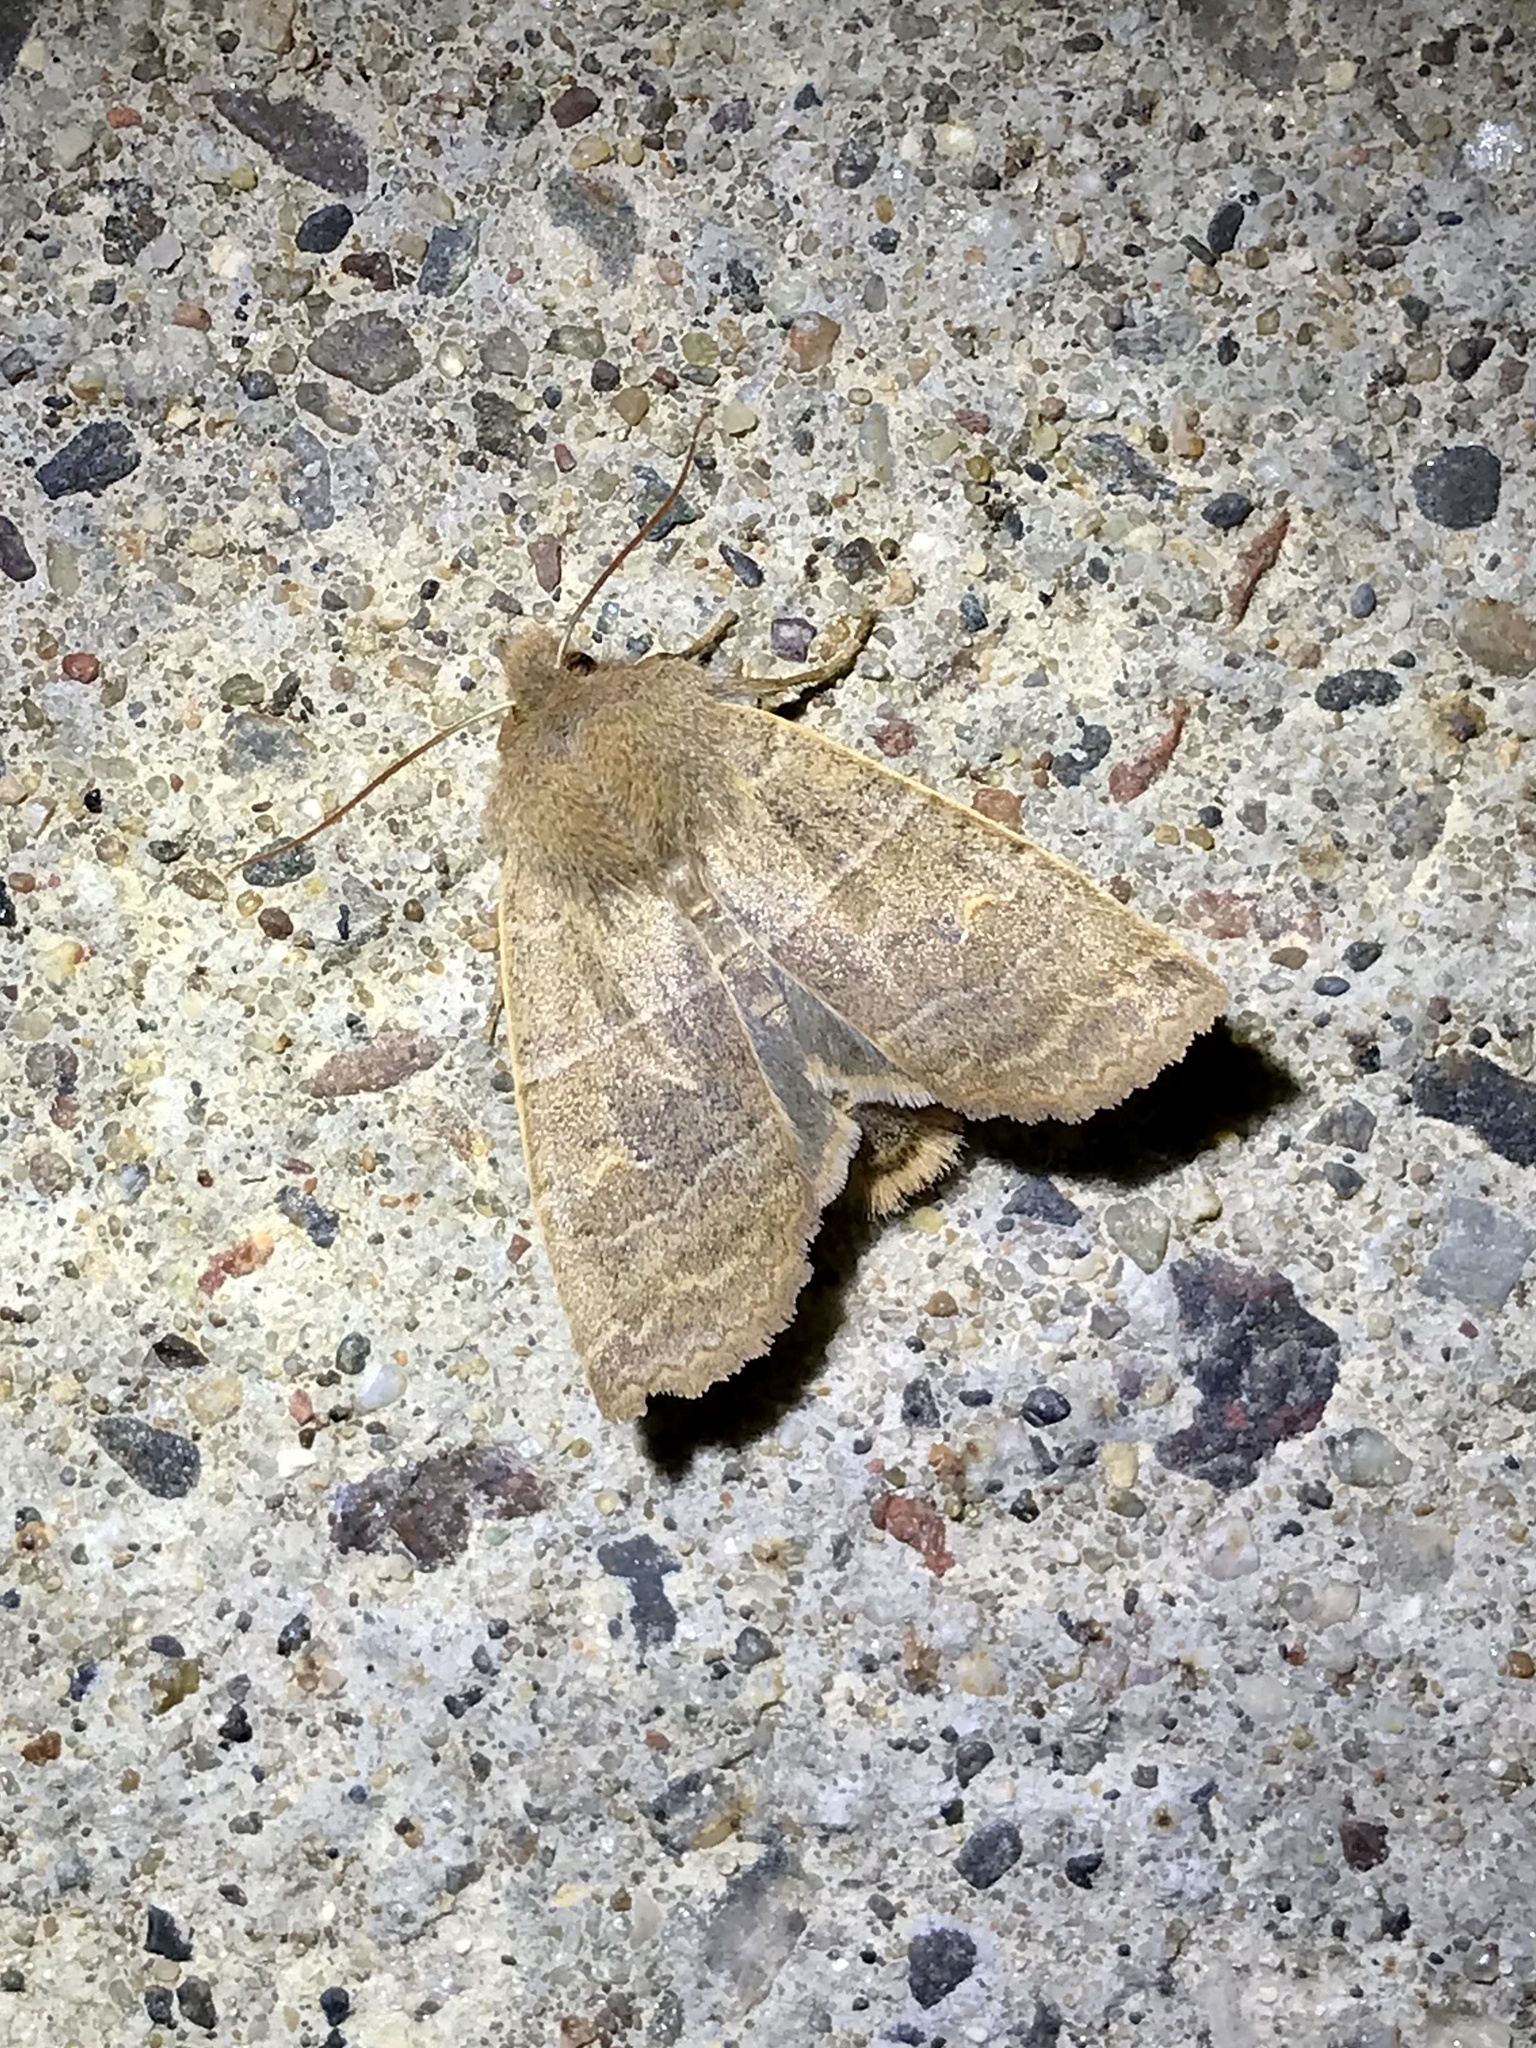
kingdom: Animalia
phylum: Arthropoda
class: Insecta
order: Lepidoptera
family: Noctuidae
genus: Eupsilia
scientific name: Eupsilia morrisoni
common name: Morrison's sallow
